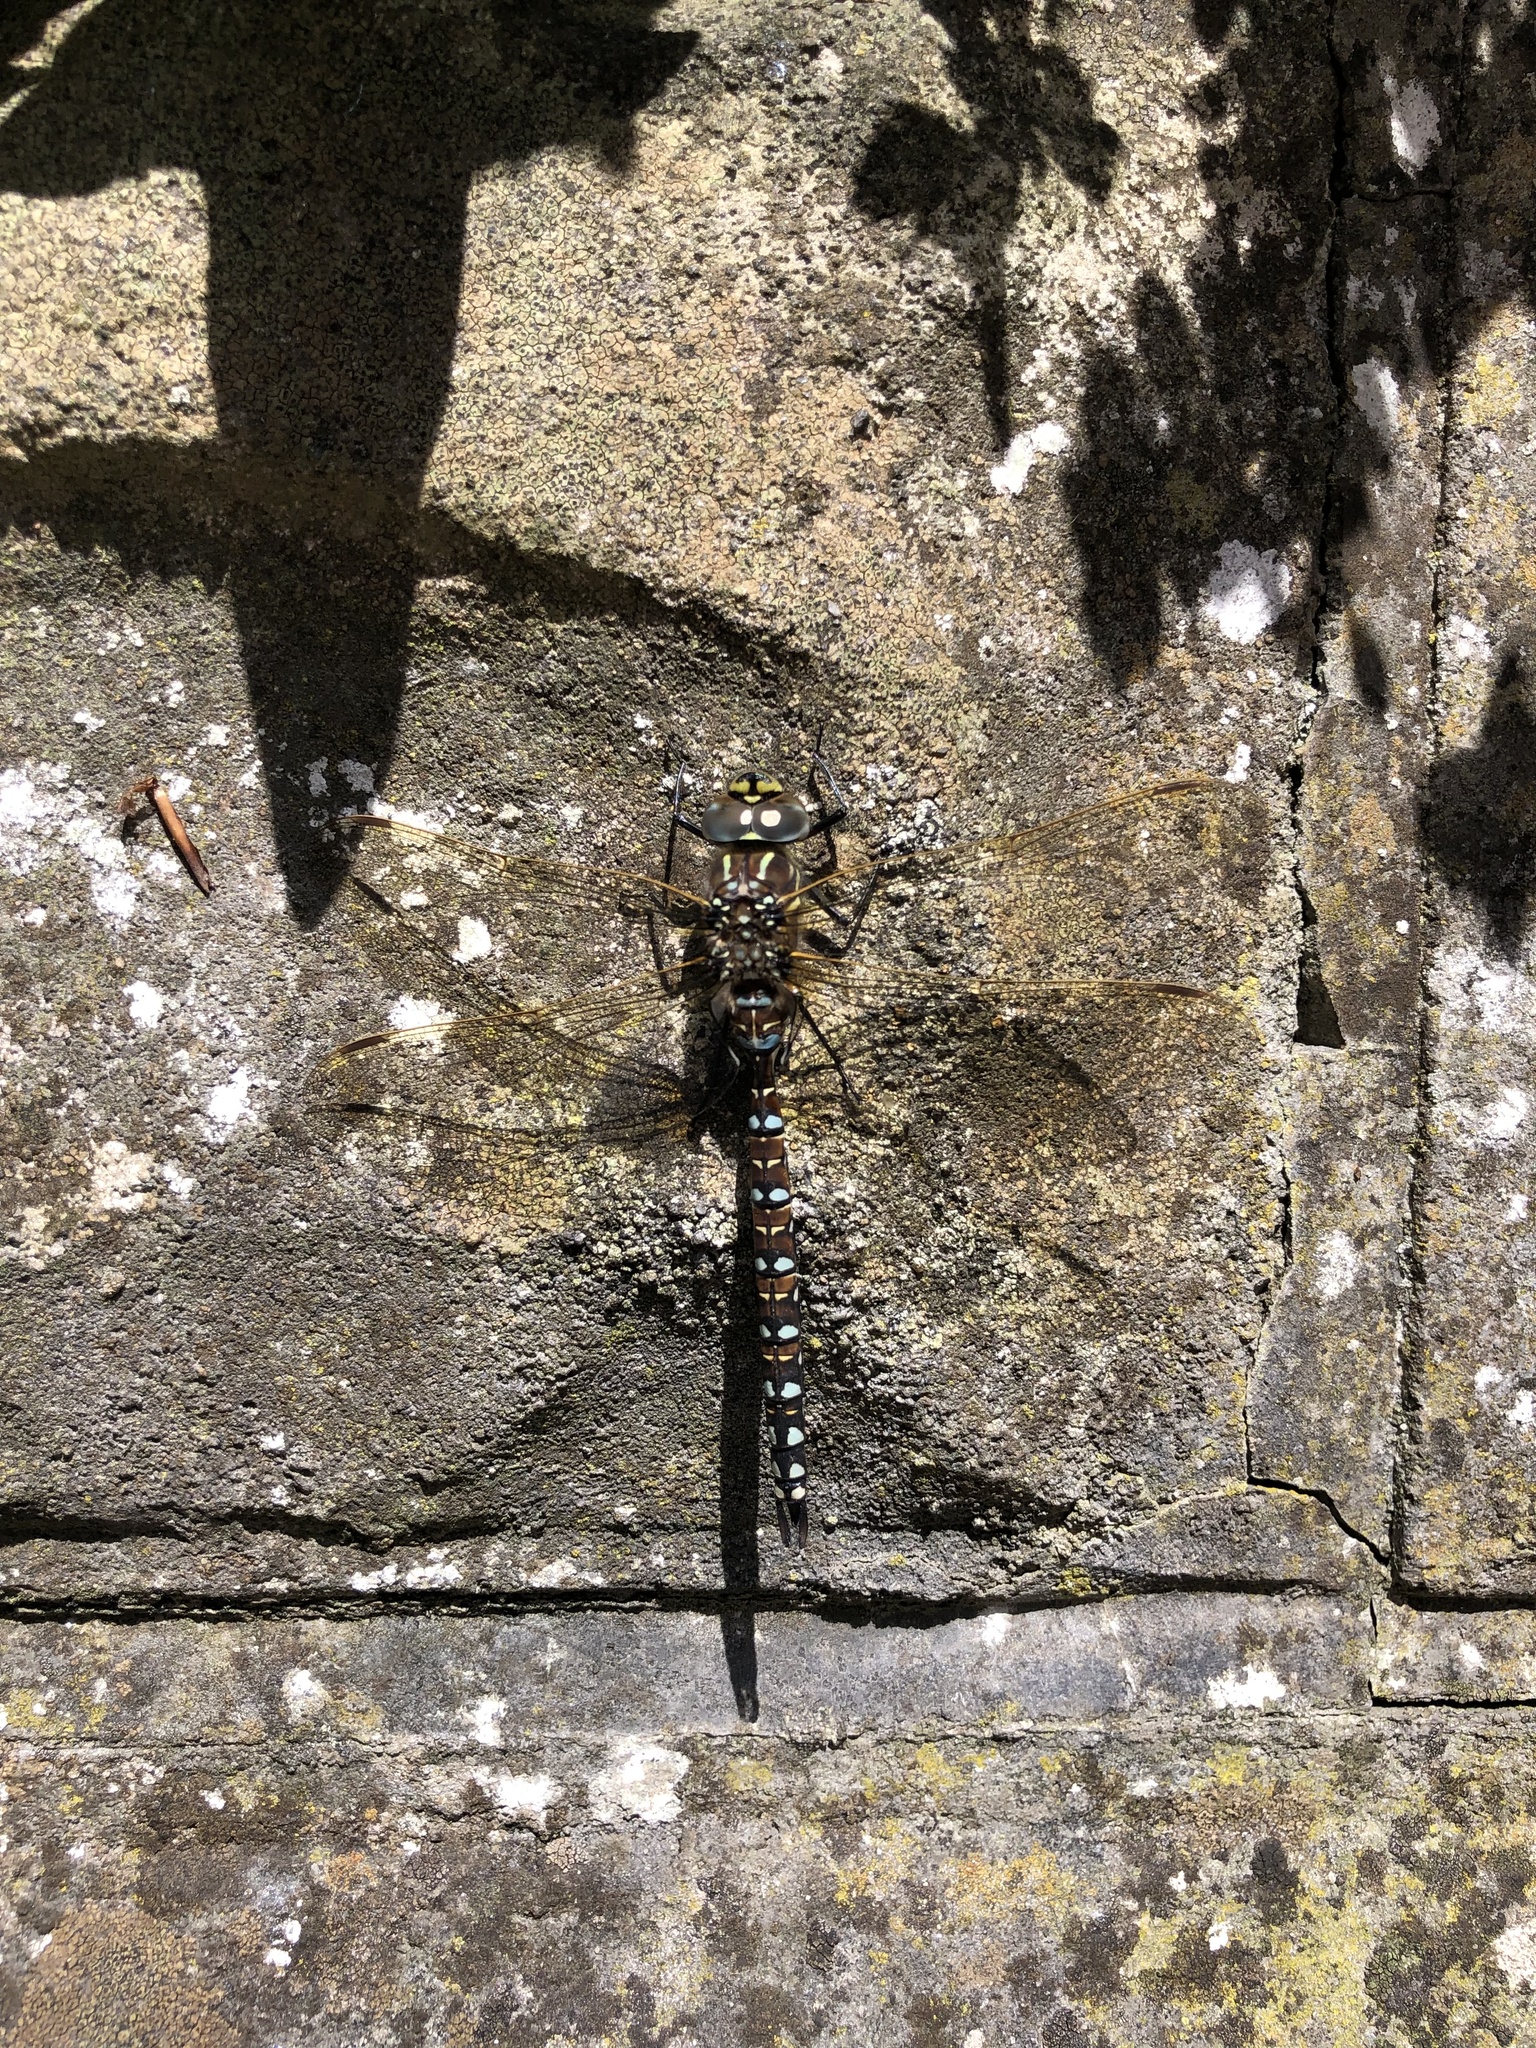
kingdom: Animalia
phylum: Arthropoda
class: Insecta
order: Odonata
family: Aeshnidae
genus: Aeshna
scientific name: Aeshna juncea
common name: Moorland hawker
